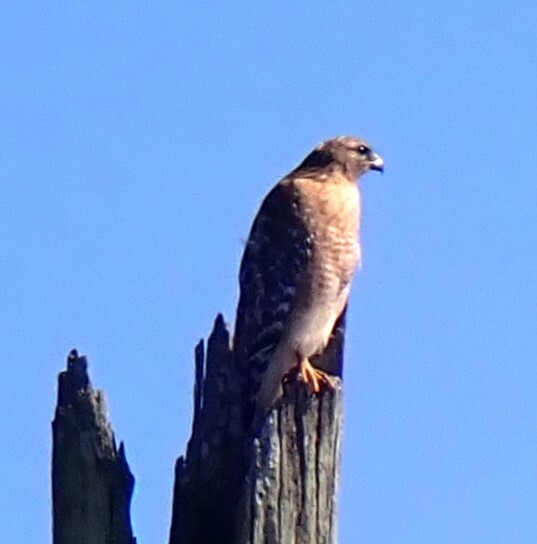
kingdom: Animalia
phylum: Chordata
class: Aves
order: Accipitriformes
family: Accipitridae
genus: Buteo
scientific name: Buteo lineatus
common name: Red-shouldered hawk
